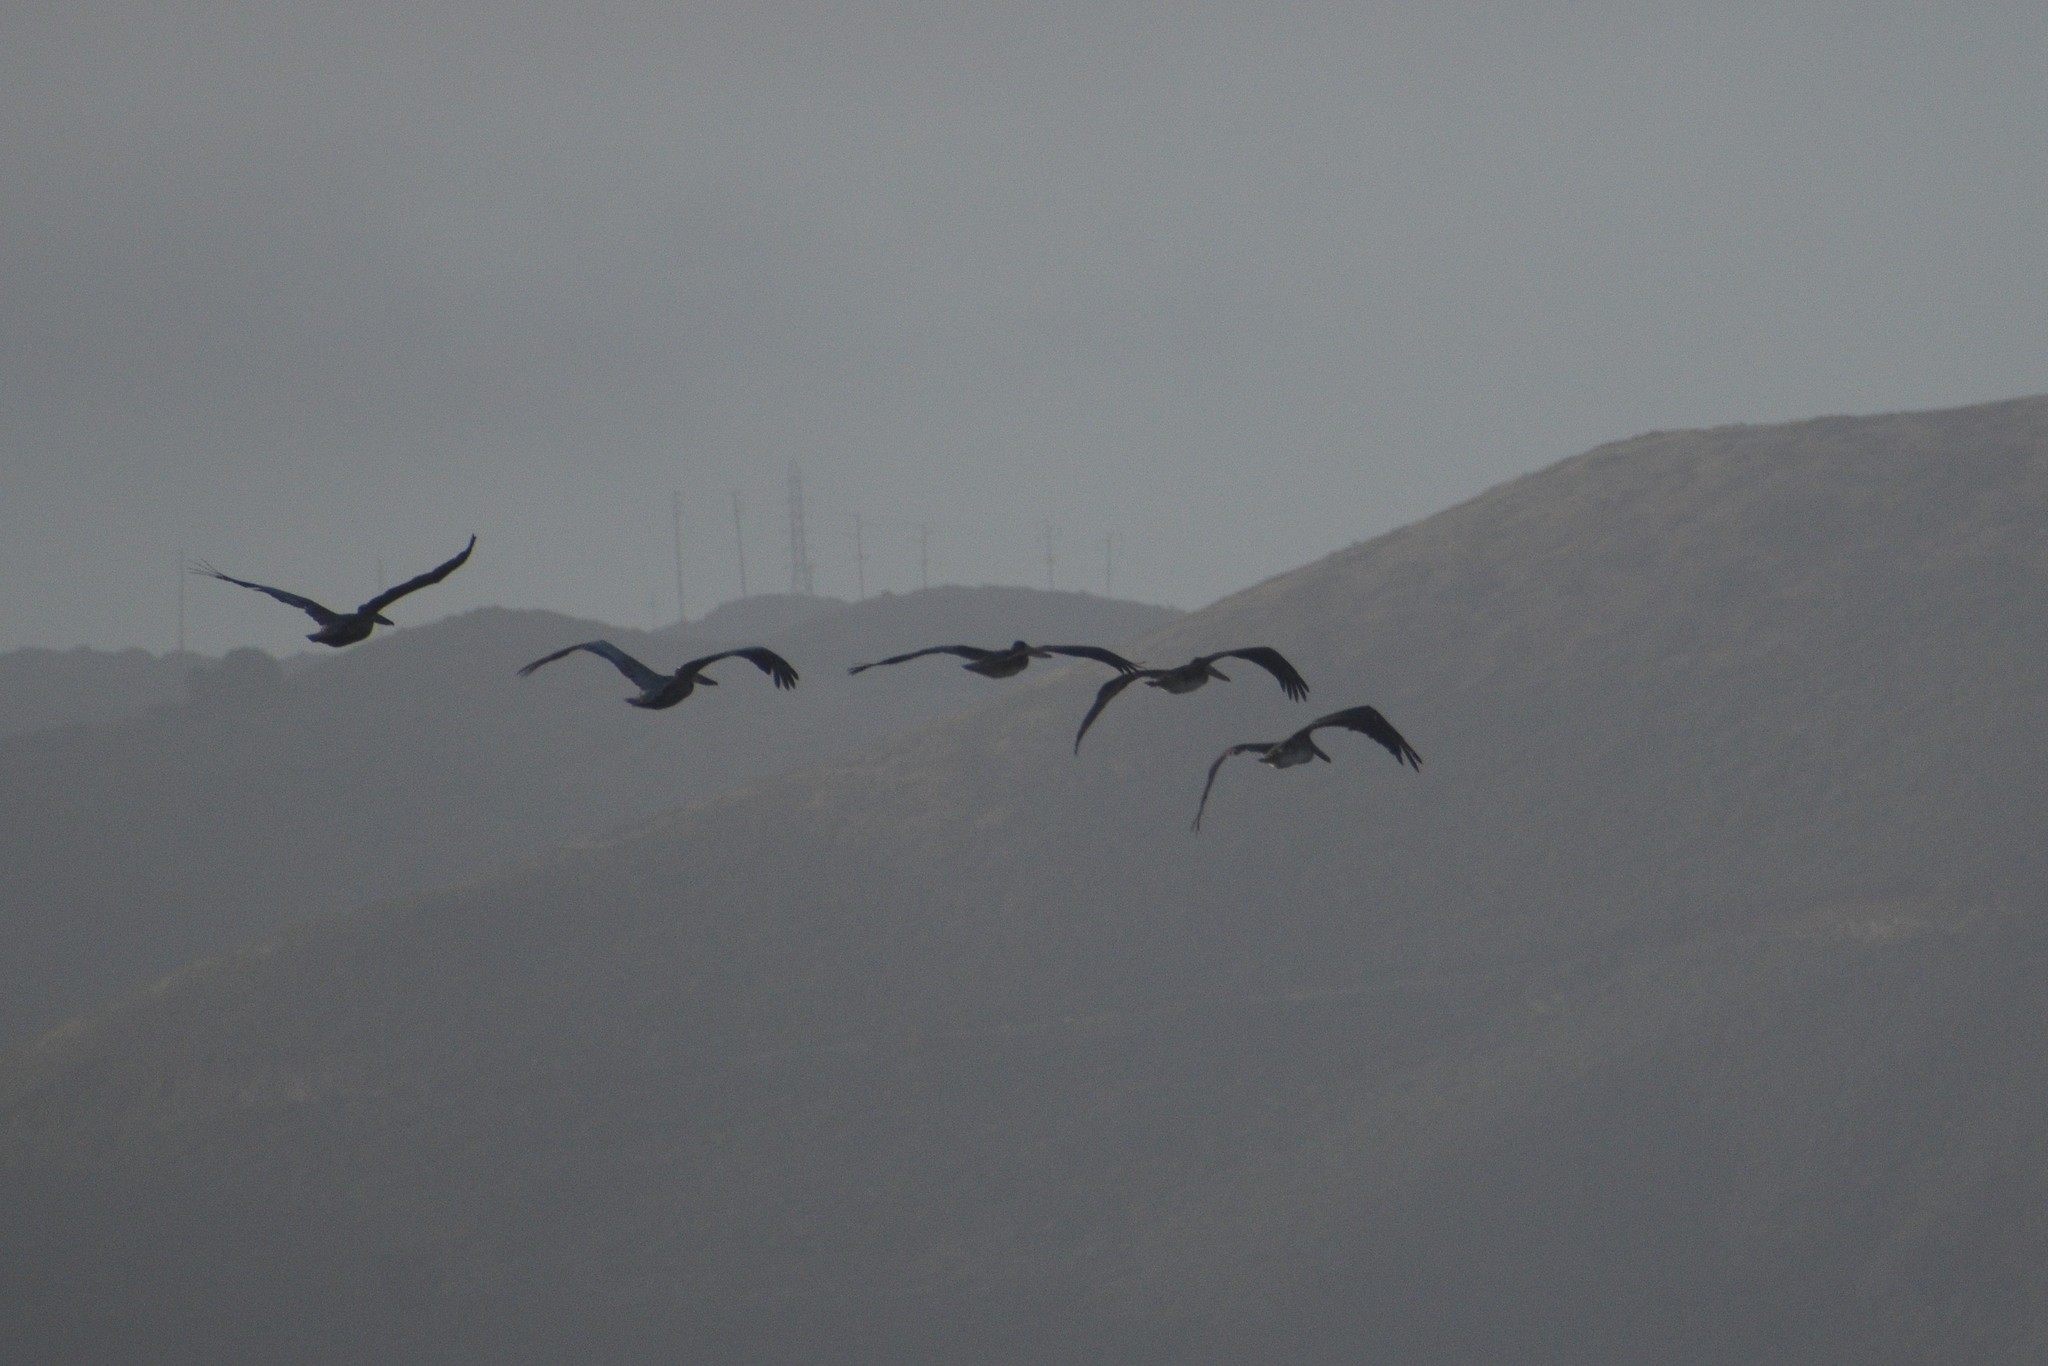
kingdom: Animalia
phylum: Chordata
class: Aves
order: Pelecaniformes
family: Pelecanidae
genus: Pelecanus
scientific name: Pelecanus occidentalis
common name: Brown pelican
